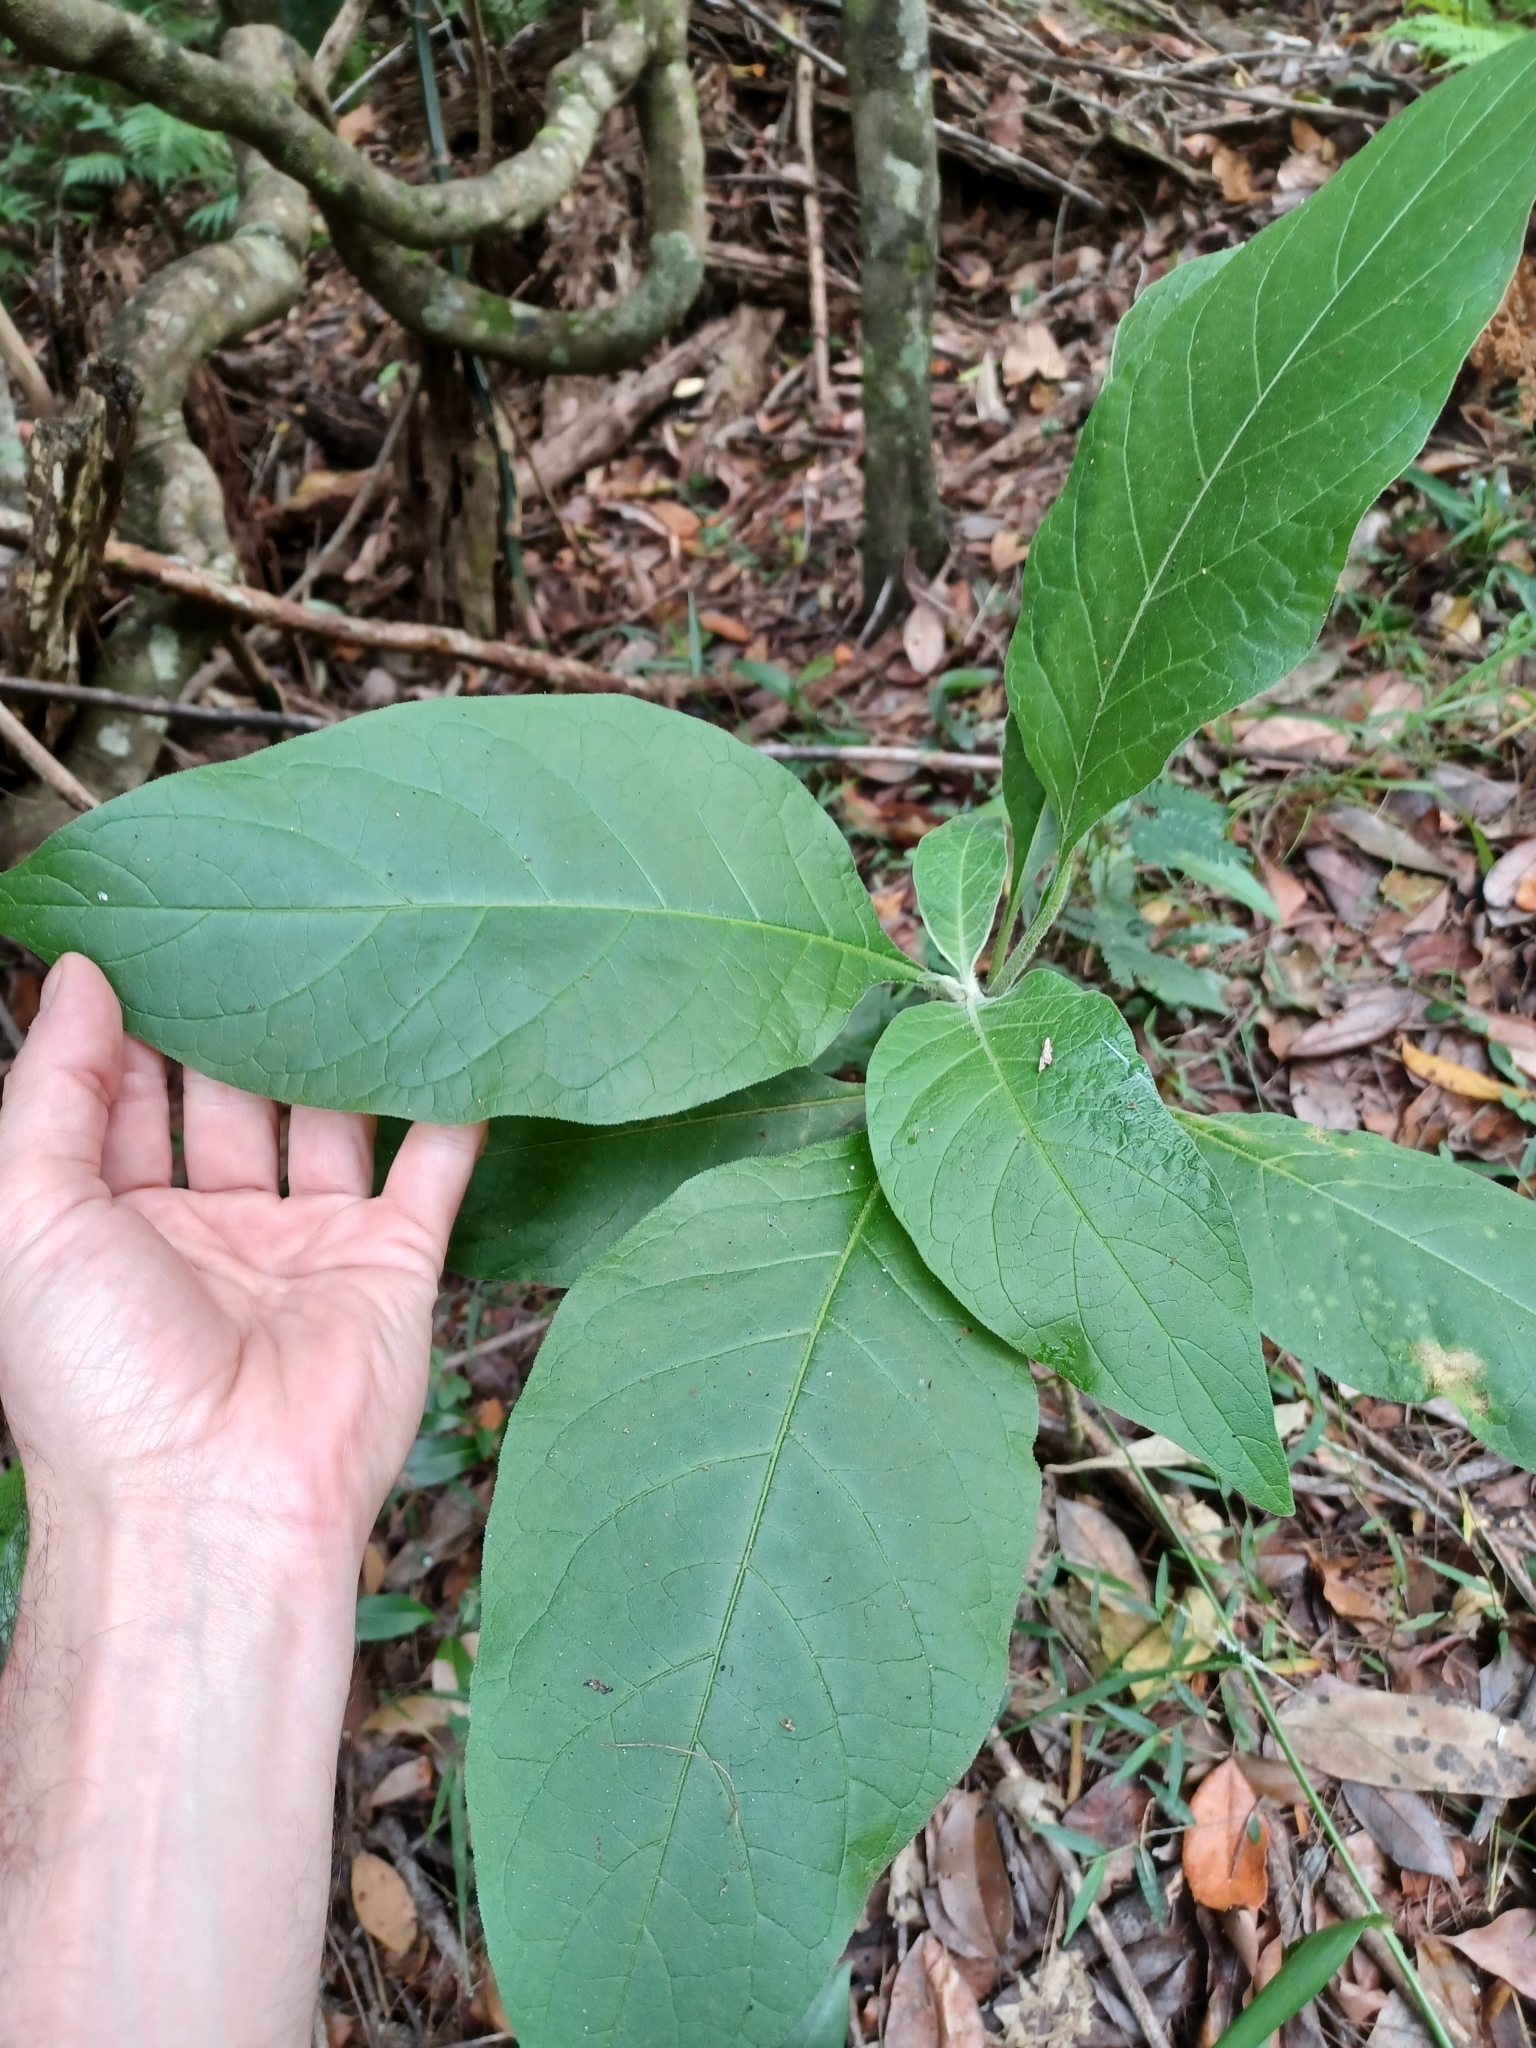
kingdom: Plantae
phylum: Tracheophyta
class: Magnoliopsida
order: Solanales
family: Solanaceae
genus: Solanum
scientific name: Solanum mauritianum
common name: Earleaf nightshade
